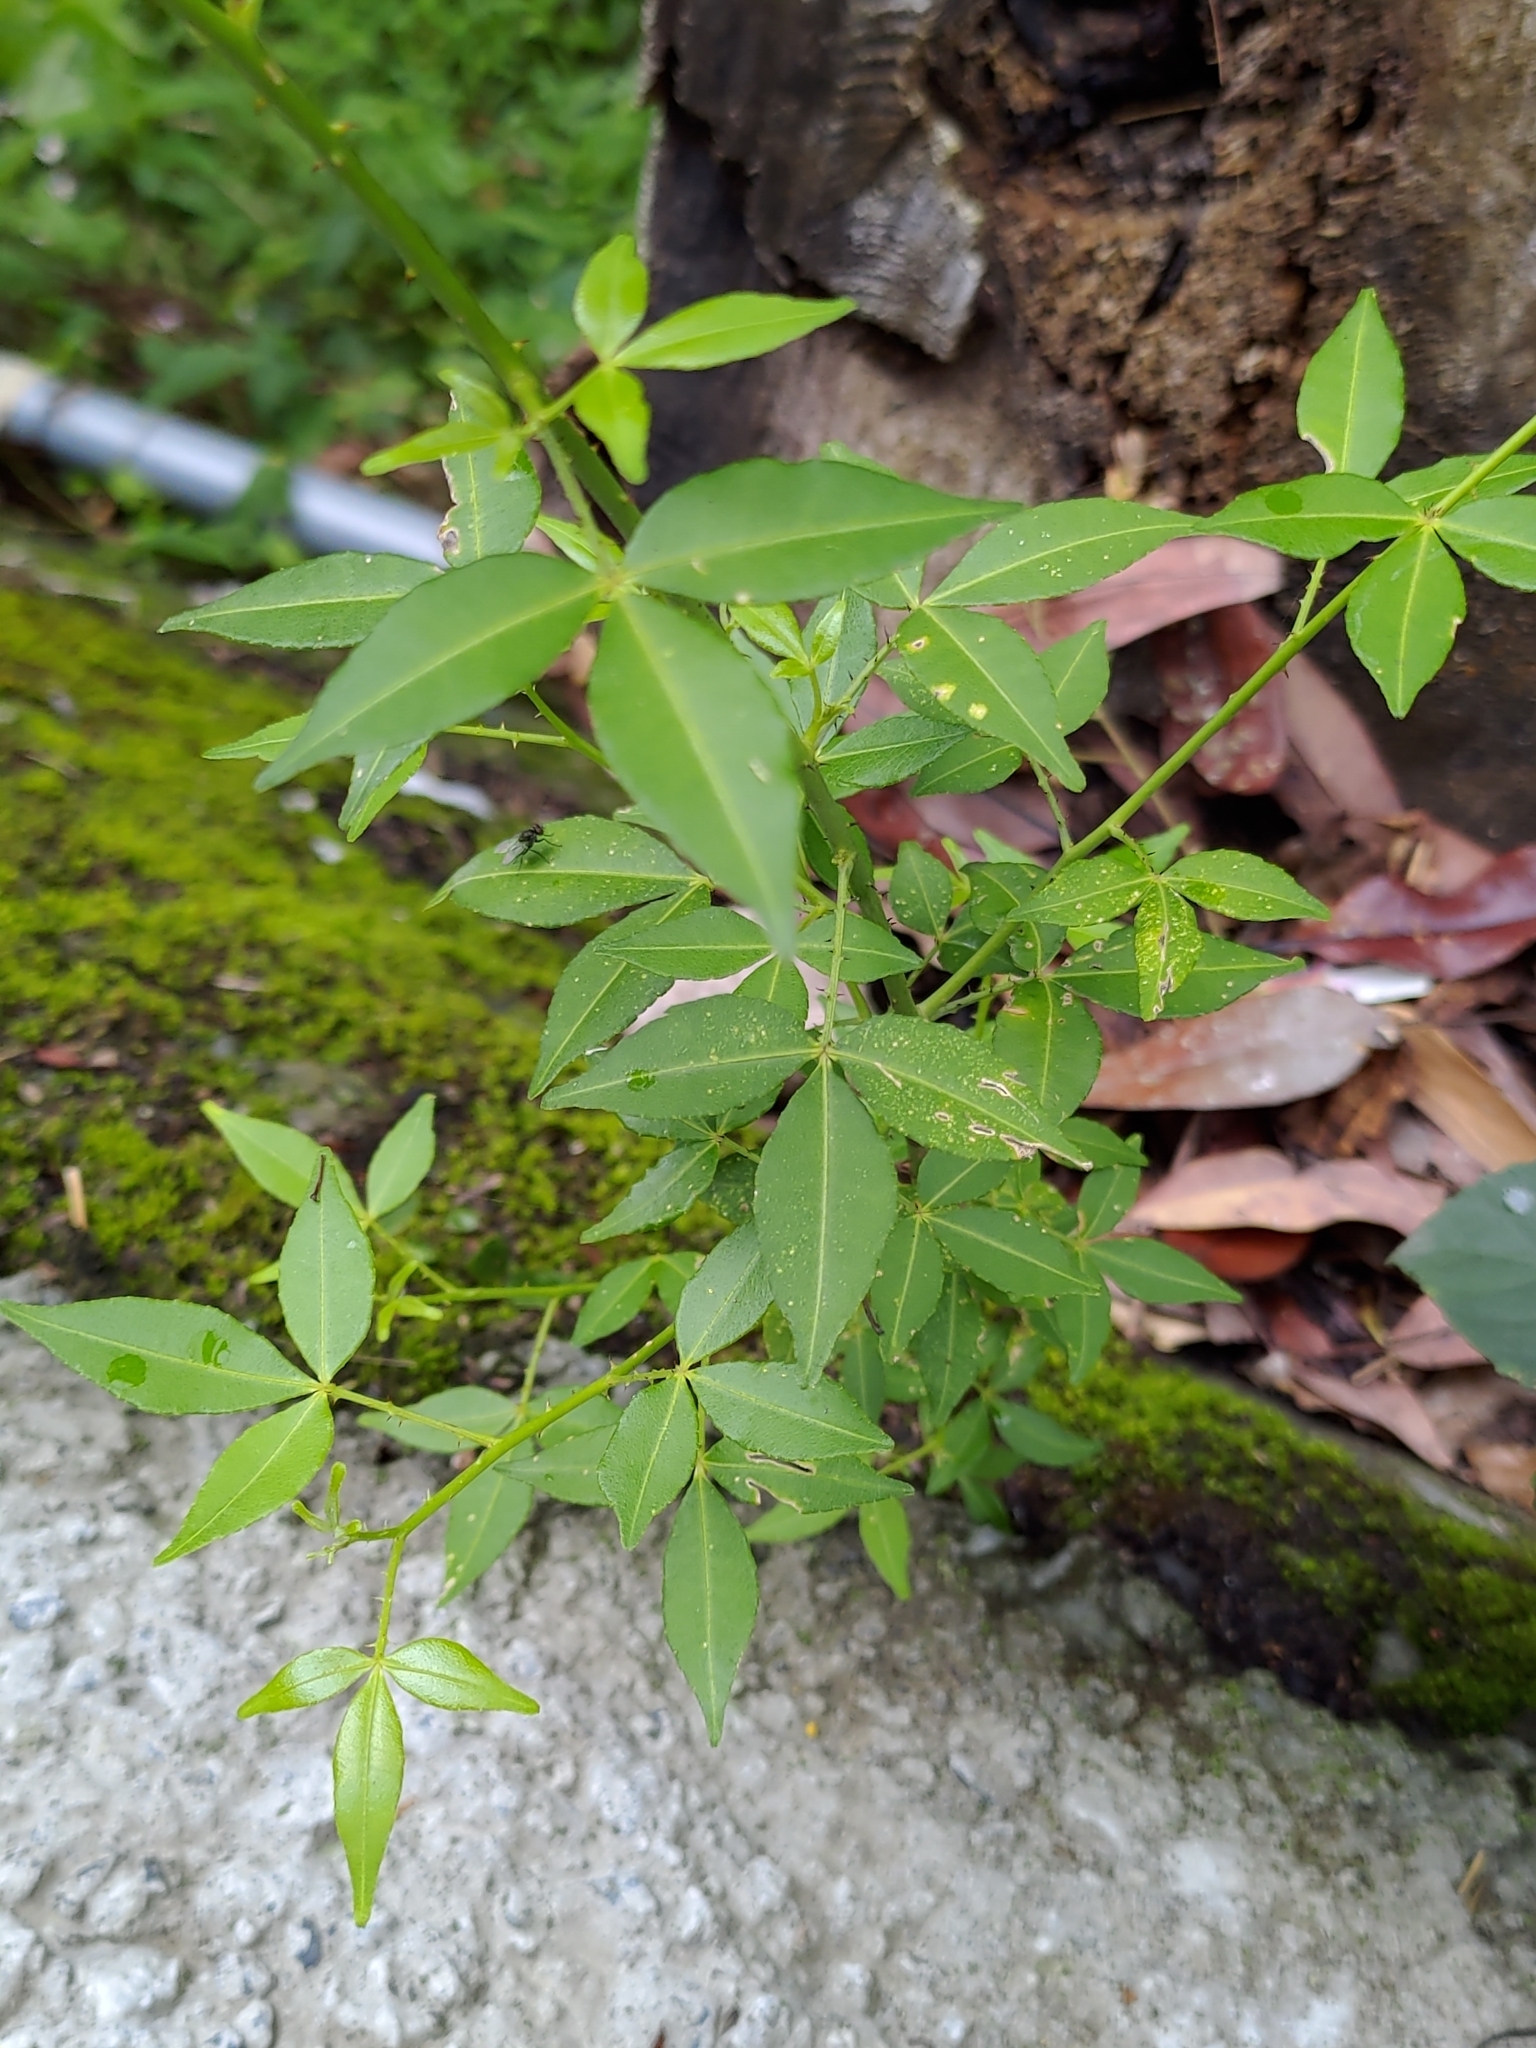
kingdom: Plantae
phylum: Tracheophyta
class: Magnoliopsida
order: Sapindales
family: Rutaceae
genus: Zanthoxylum
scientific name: Zanthoxylum asiaticum
